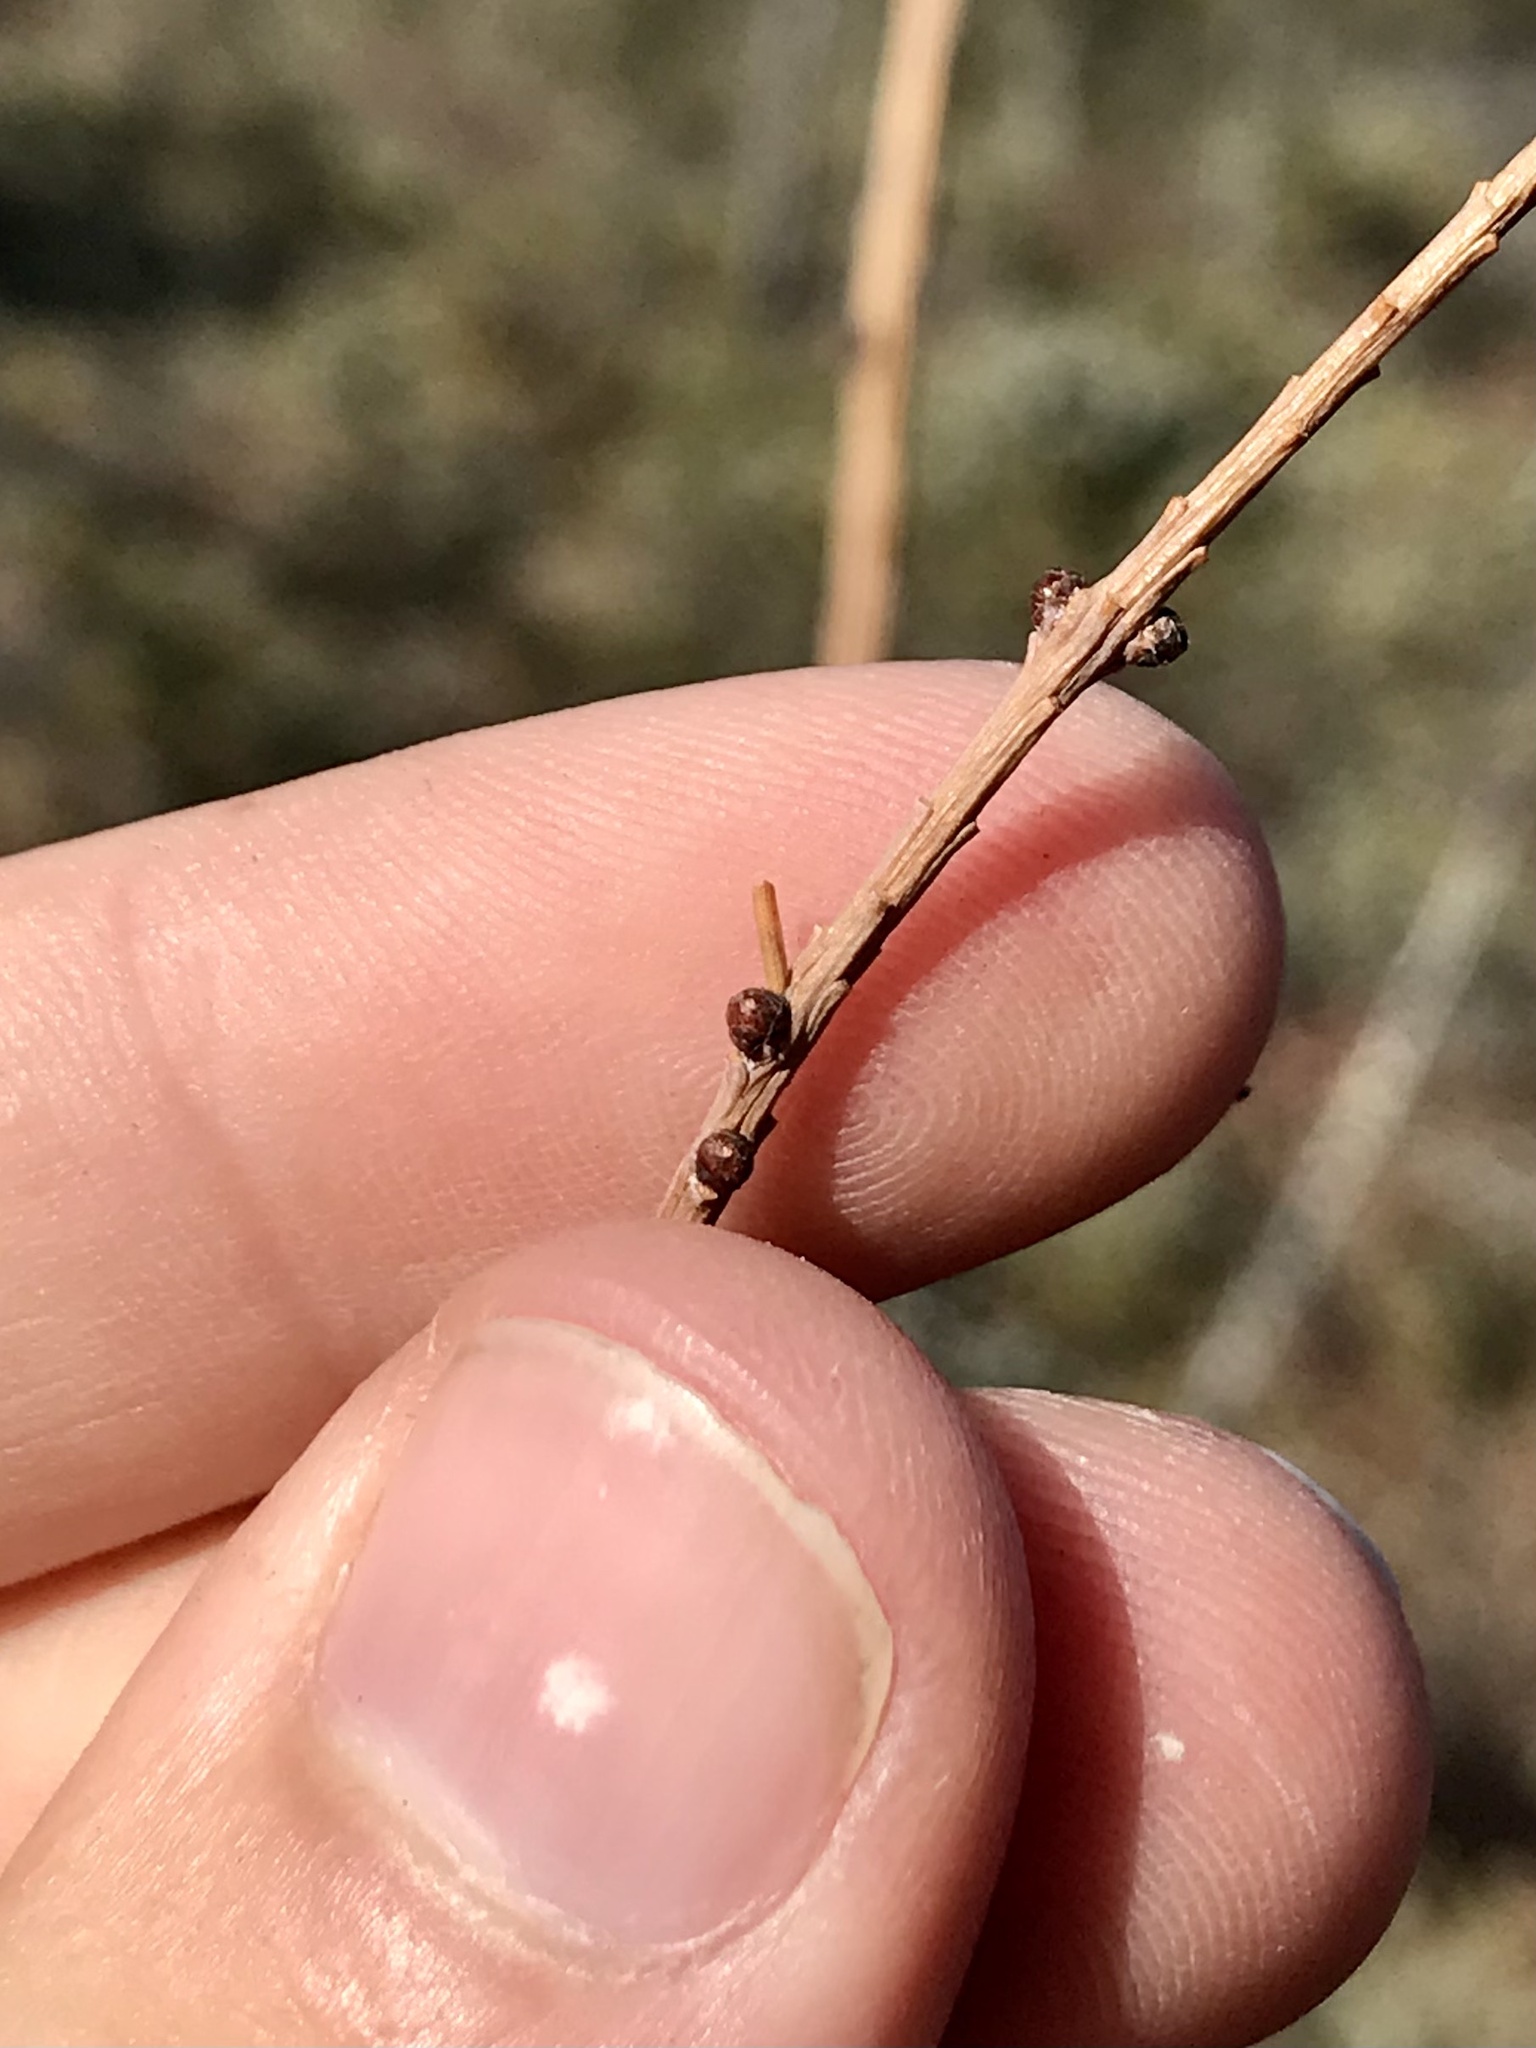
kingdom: Animalia
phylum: Arthropoda
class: Insecta
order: Lepidoptera
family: Coleophoridae
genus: Coleophora
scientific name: Coleophora laricella
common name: Larch case-bearer
